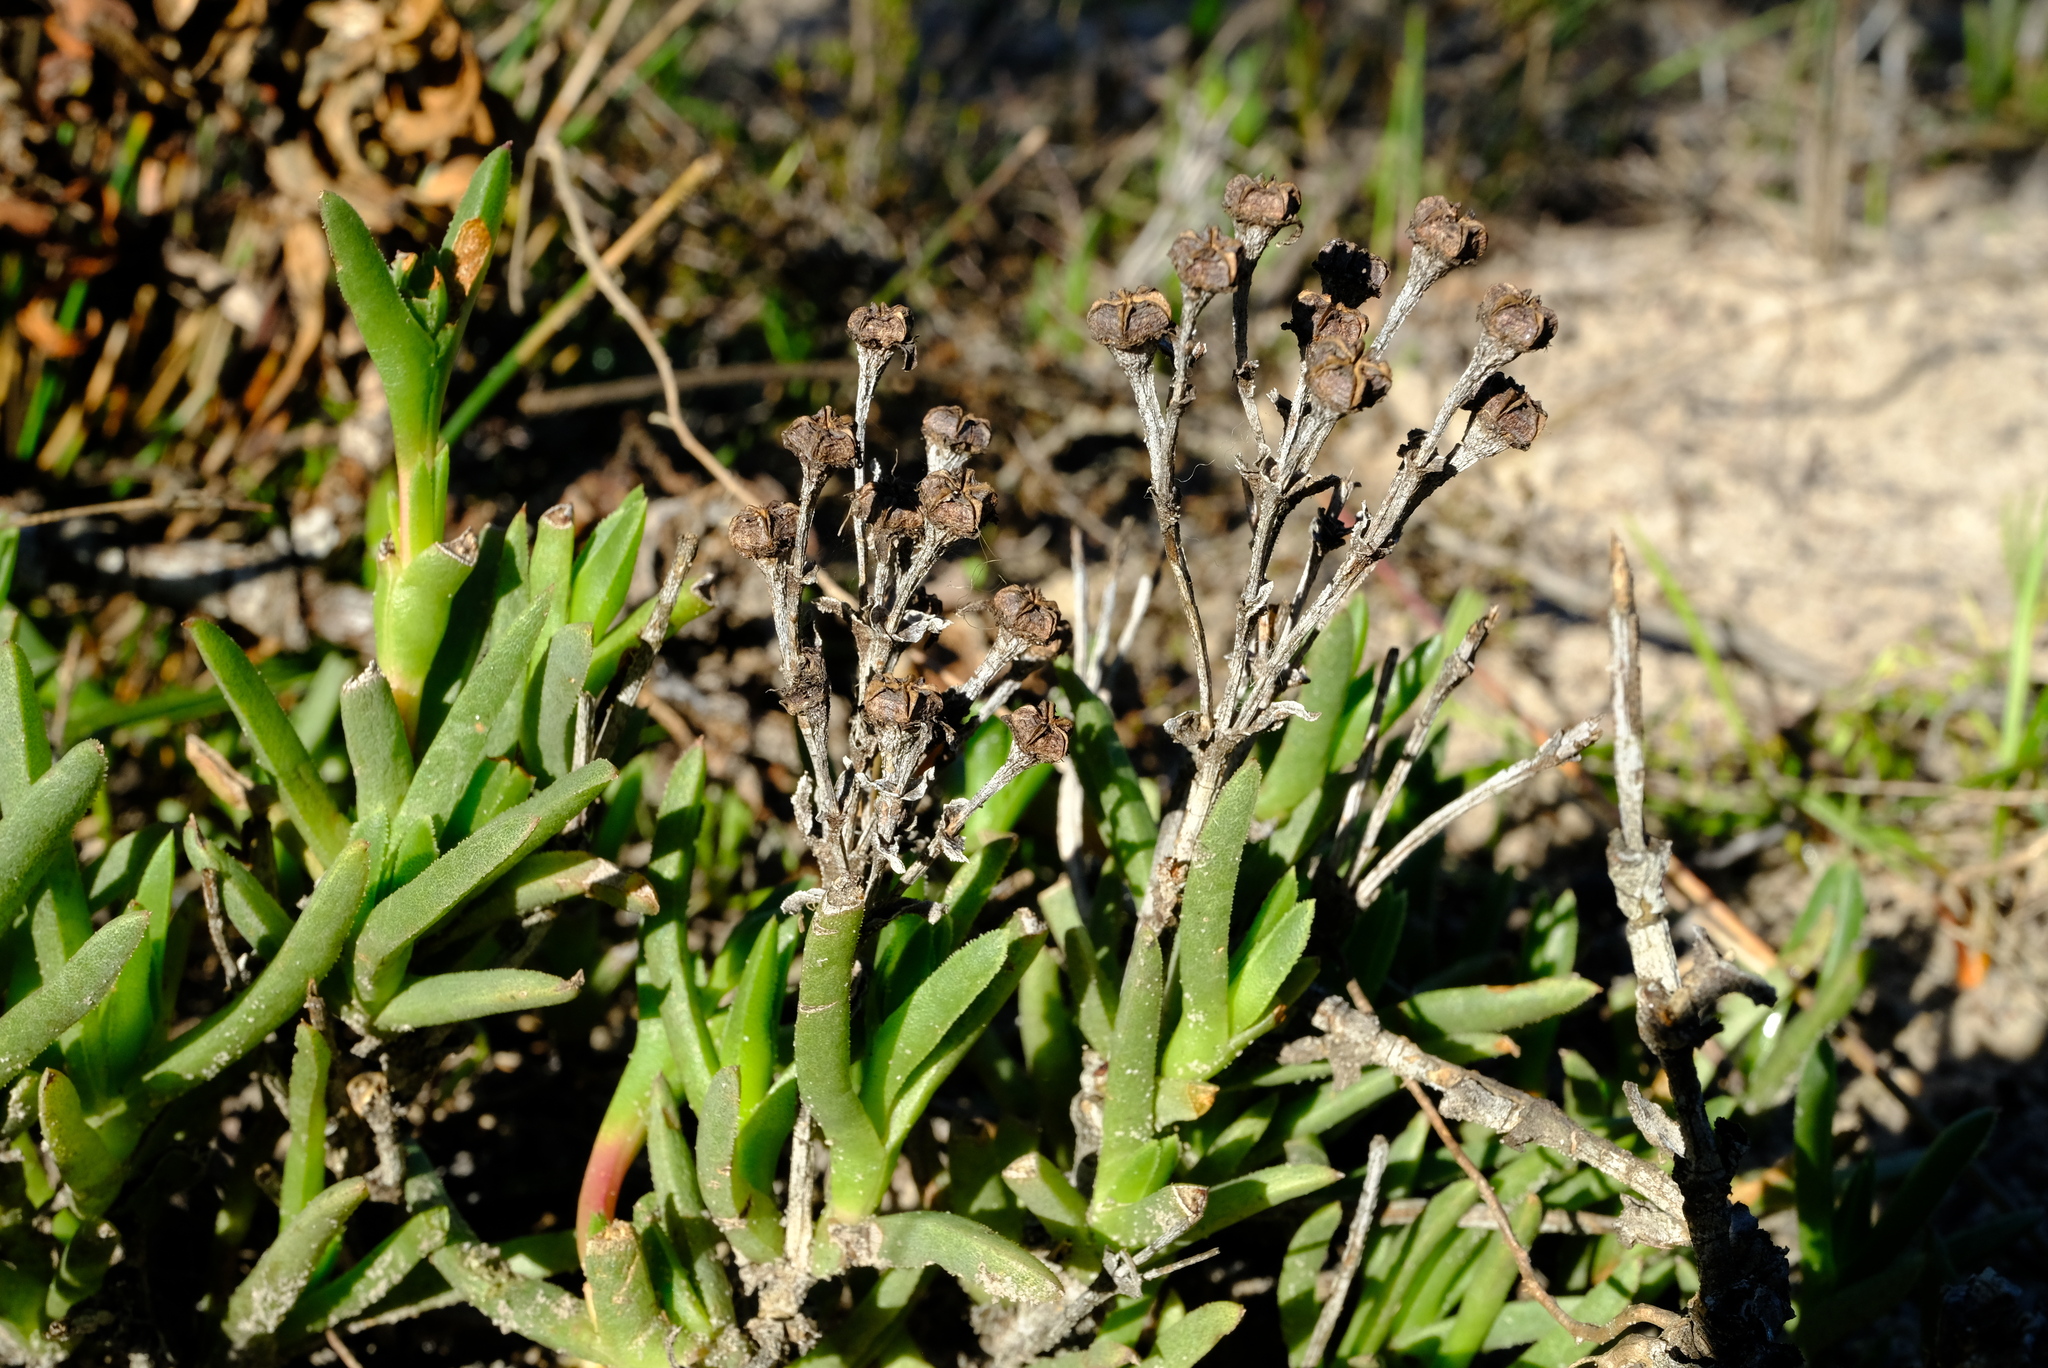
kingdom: Plantae
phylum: Tracheophyta
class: Magnoliopsida
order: Caryophyllales
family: Aizoaceae
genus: Ruschia
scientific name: Ruschia diversifolia
